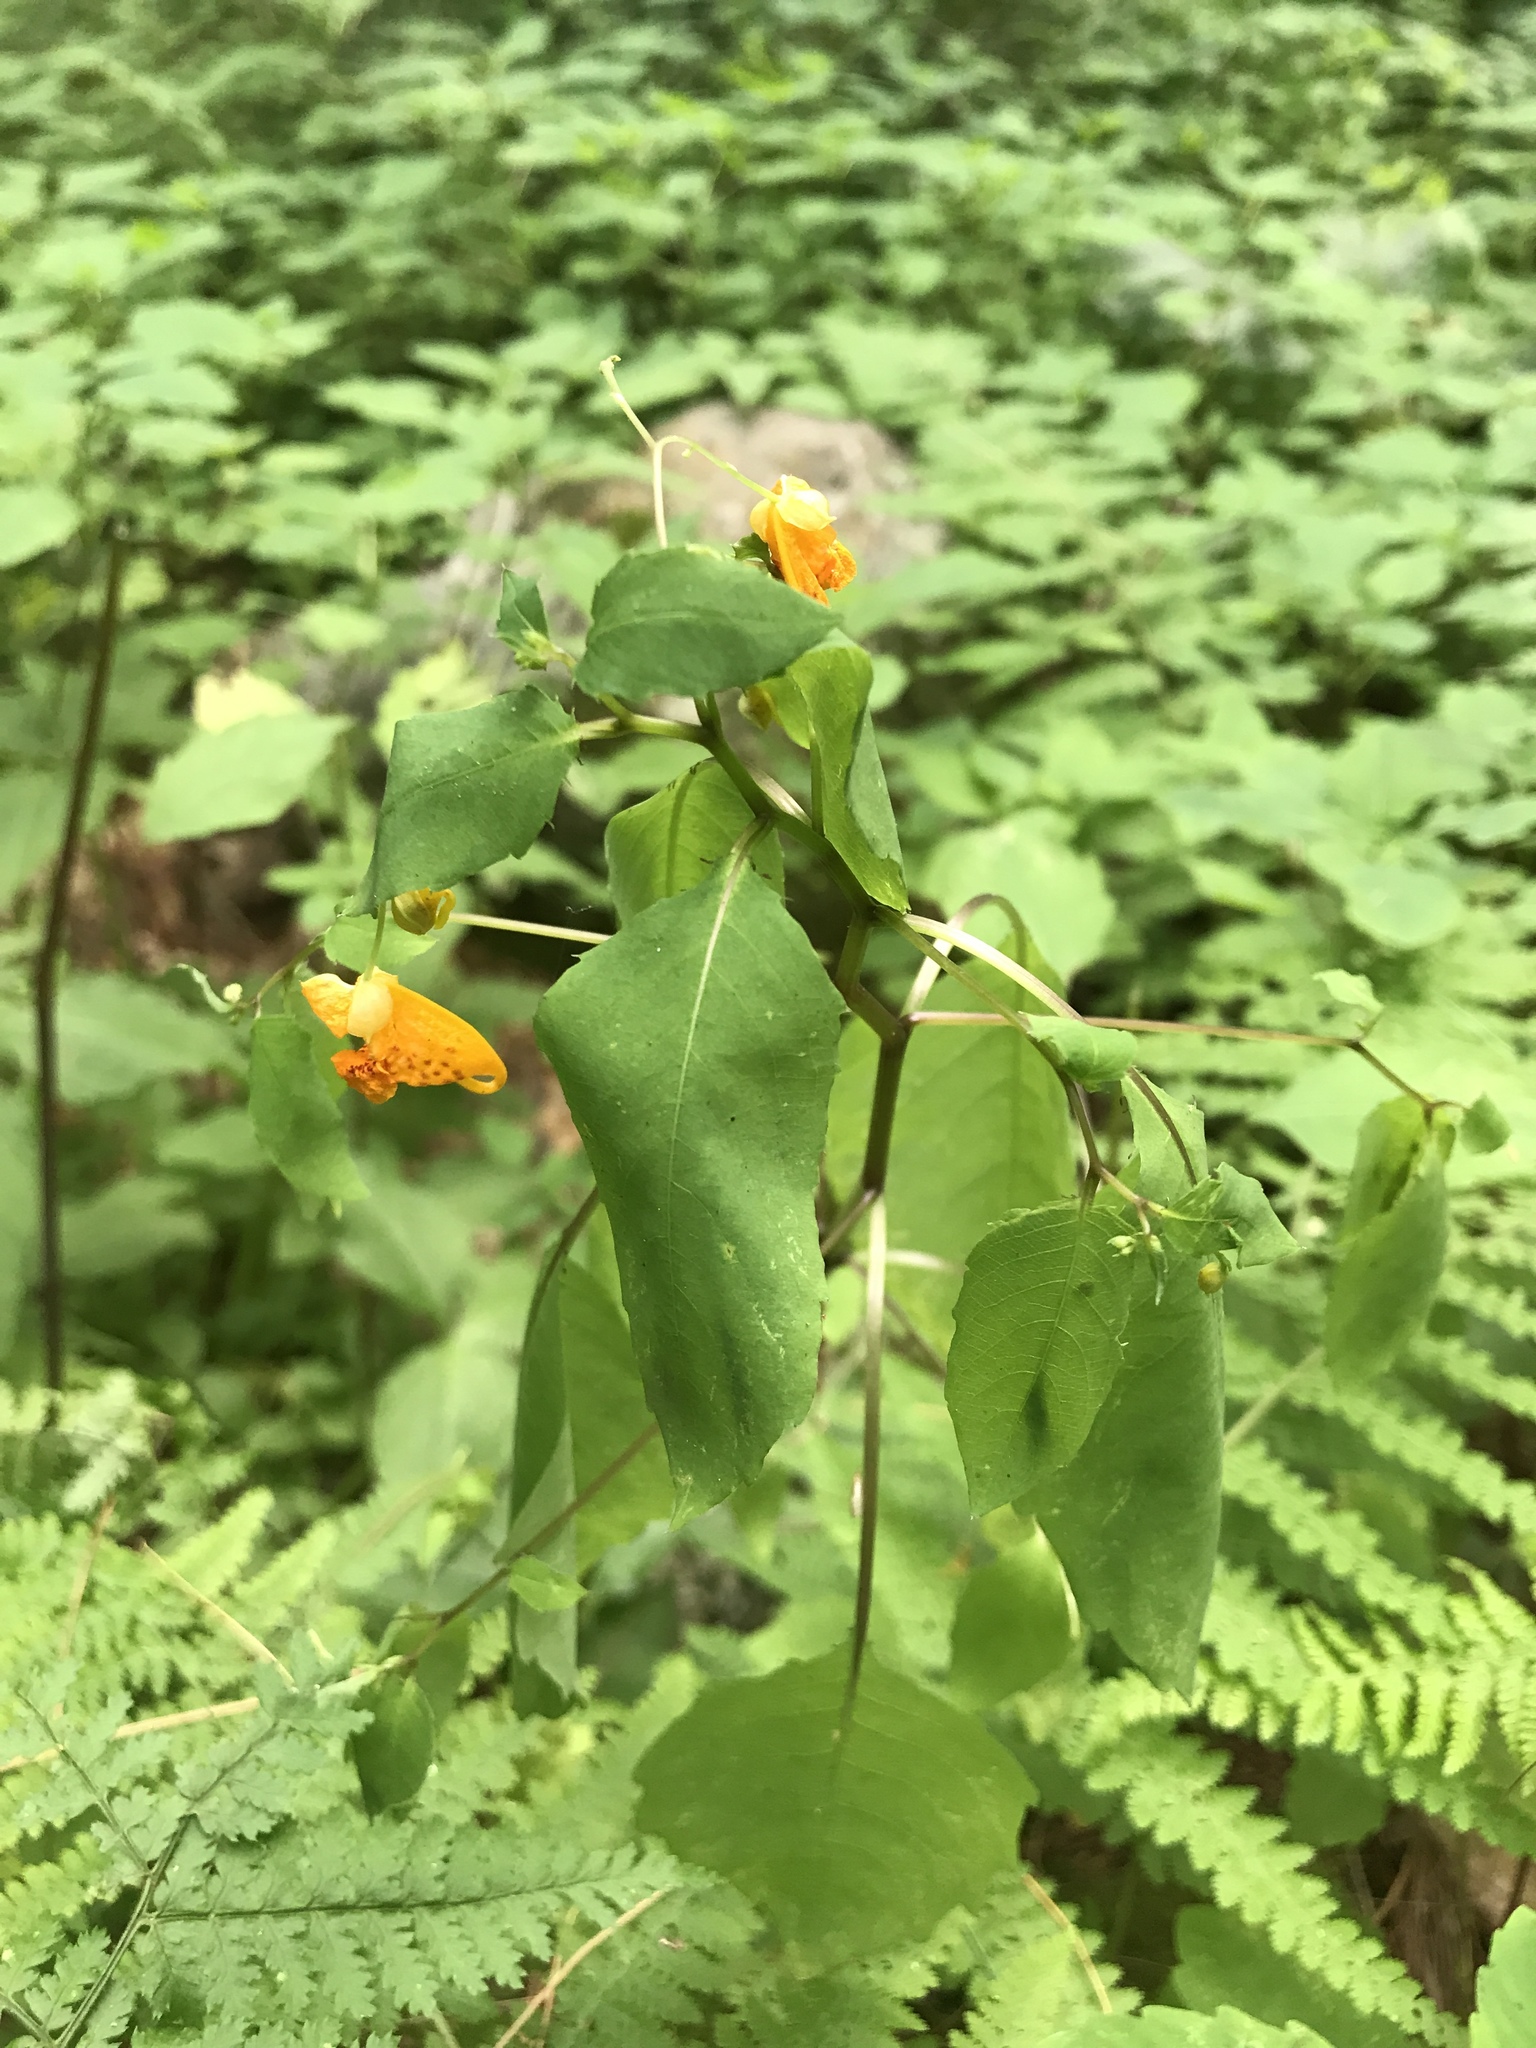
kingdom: Plantae
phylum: Tracheophyta
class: Magnoliopsida
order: Ericales
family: Balsaminaceae
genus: Impatiens
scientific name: Impatiens capensis
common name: Orange balsam
